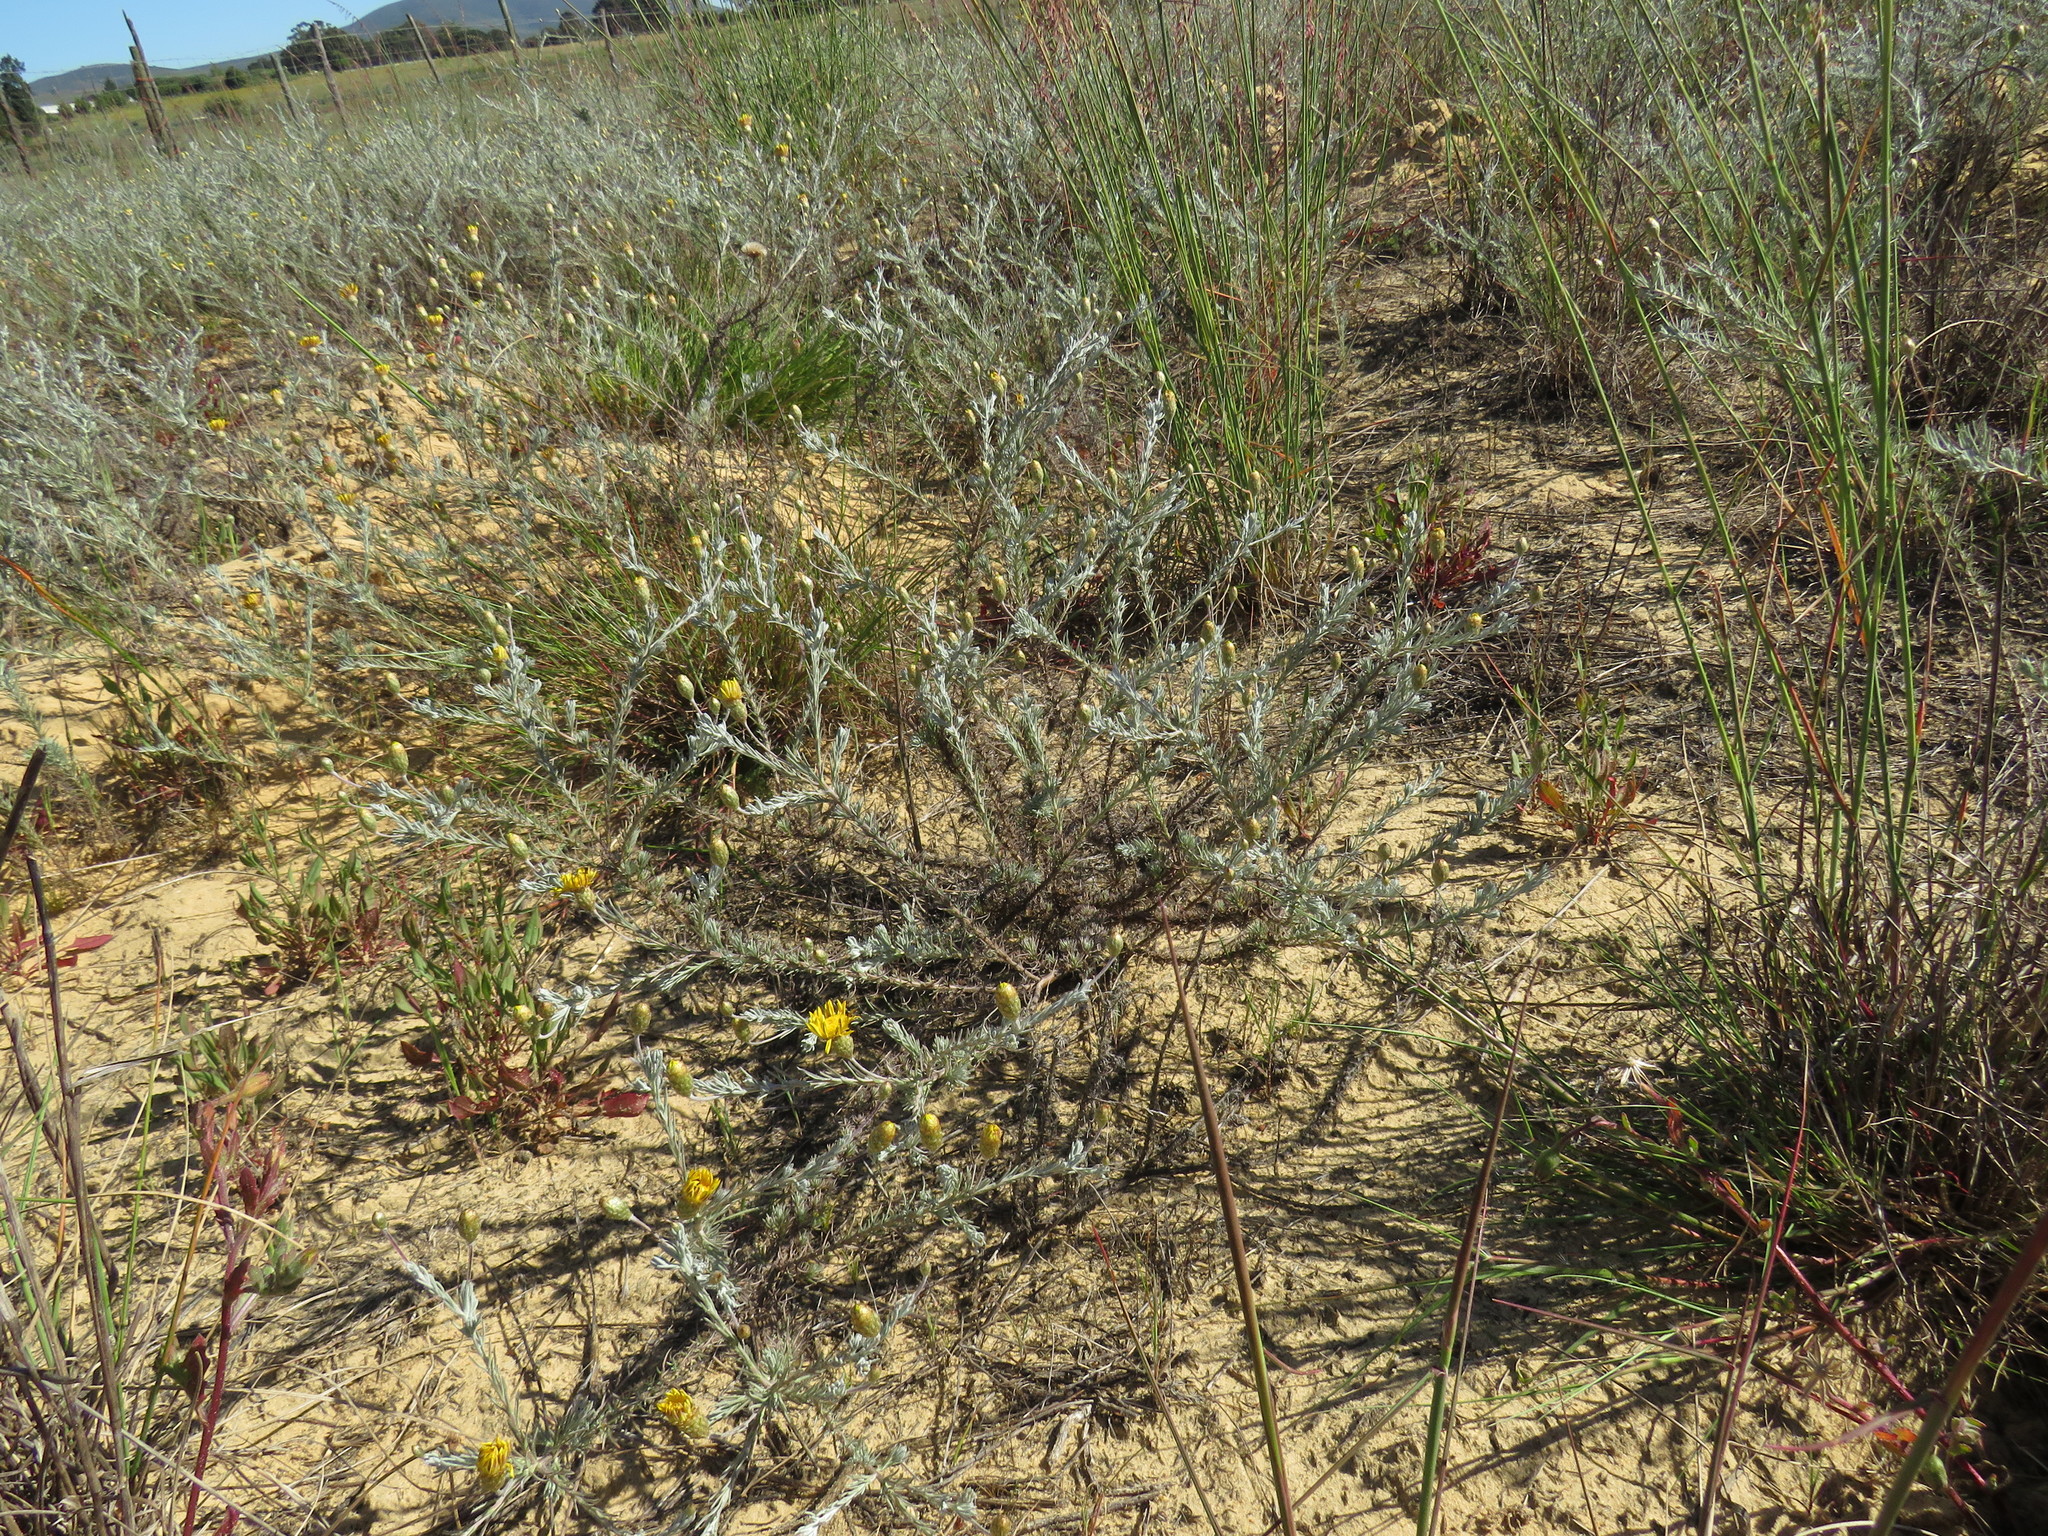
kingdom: Plantae
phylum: Tracheophyta
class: Magnoliopsida
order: Asterales
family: Asteraceae
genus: Leysera
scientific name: Leysera gnaphalodes
